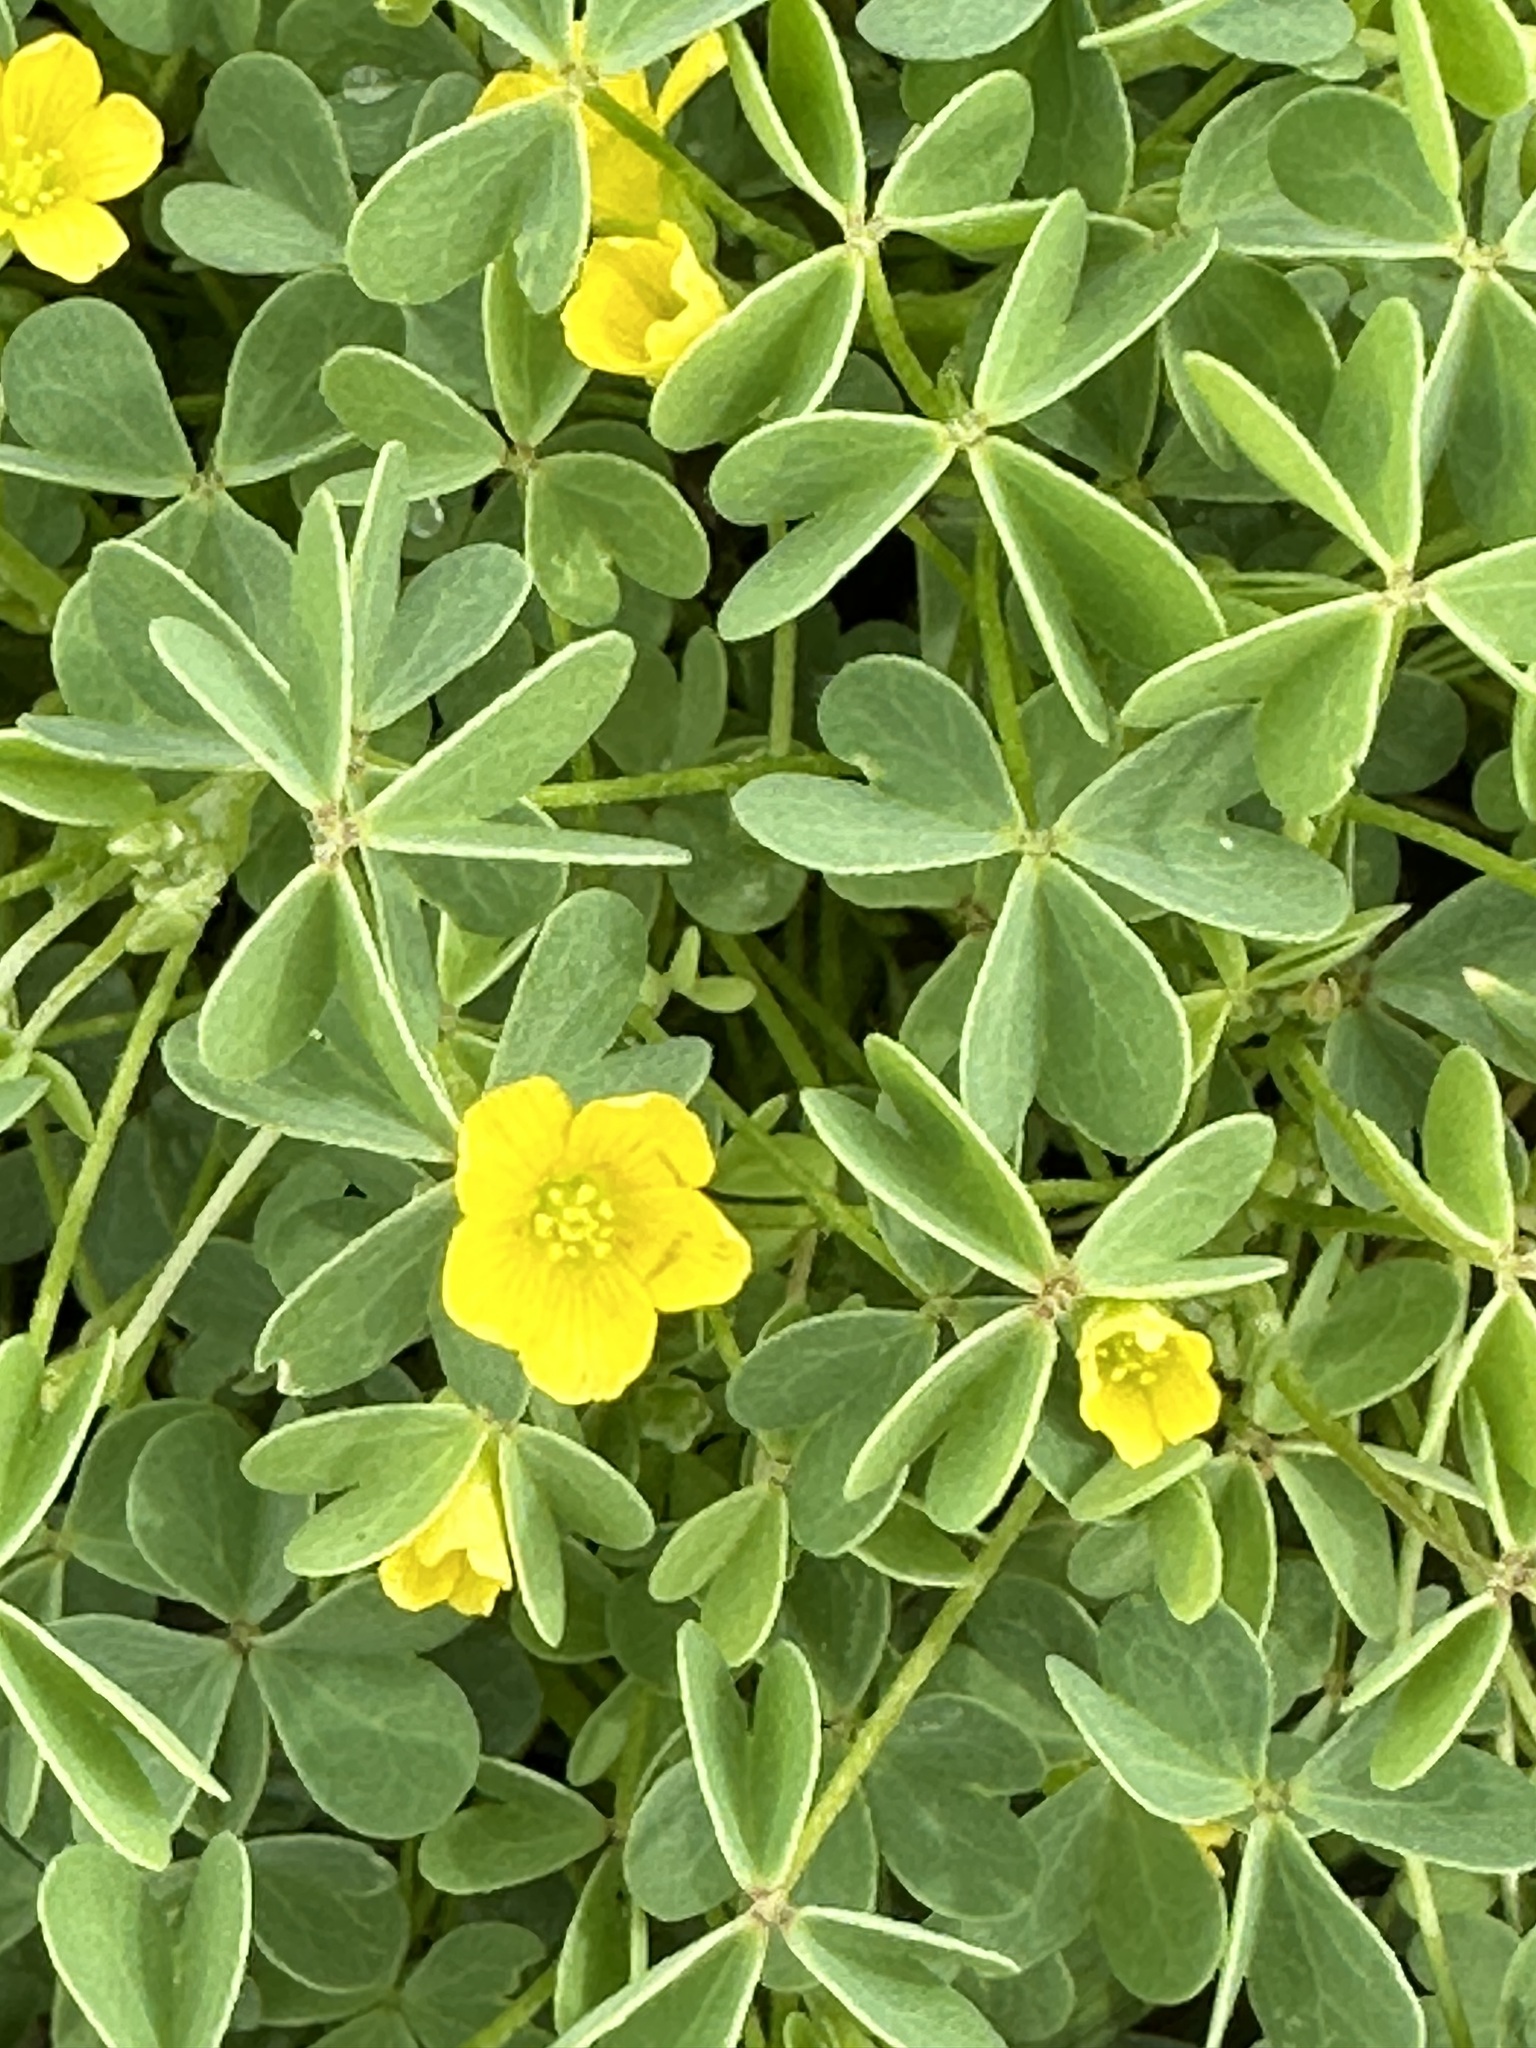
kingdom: Plantae
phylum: Tracheophyta
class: Magnoliopsida
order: Oxalidales
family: Oxalidaceae
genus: Oxalis
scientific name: Oxalis dillenii
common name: Sussex yellow-sorrel
